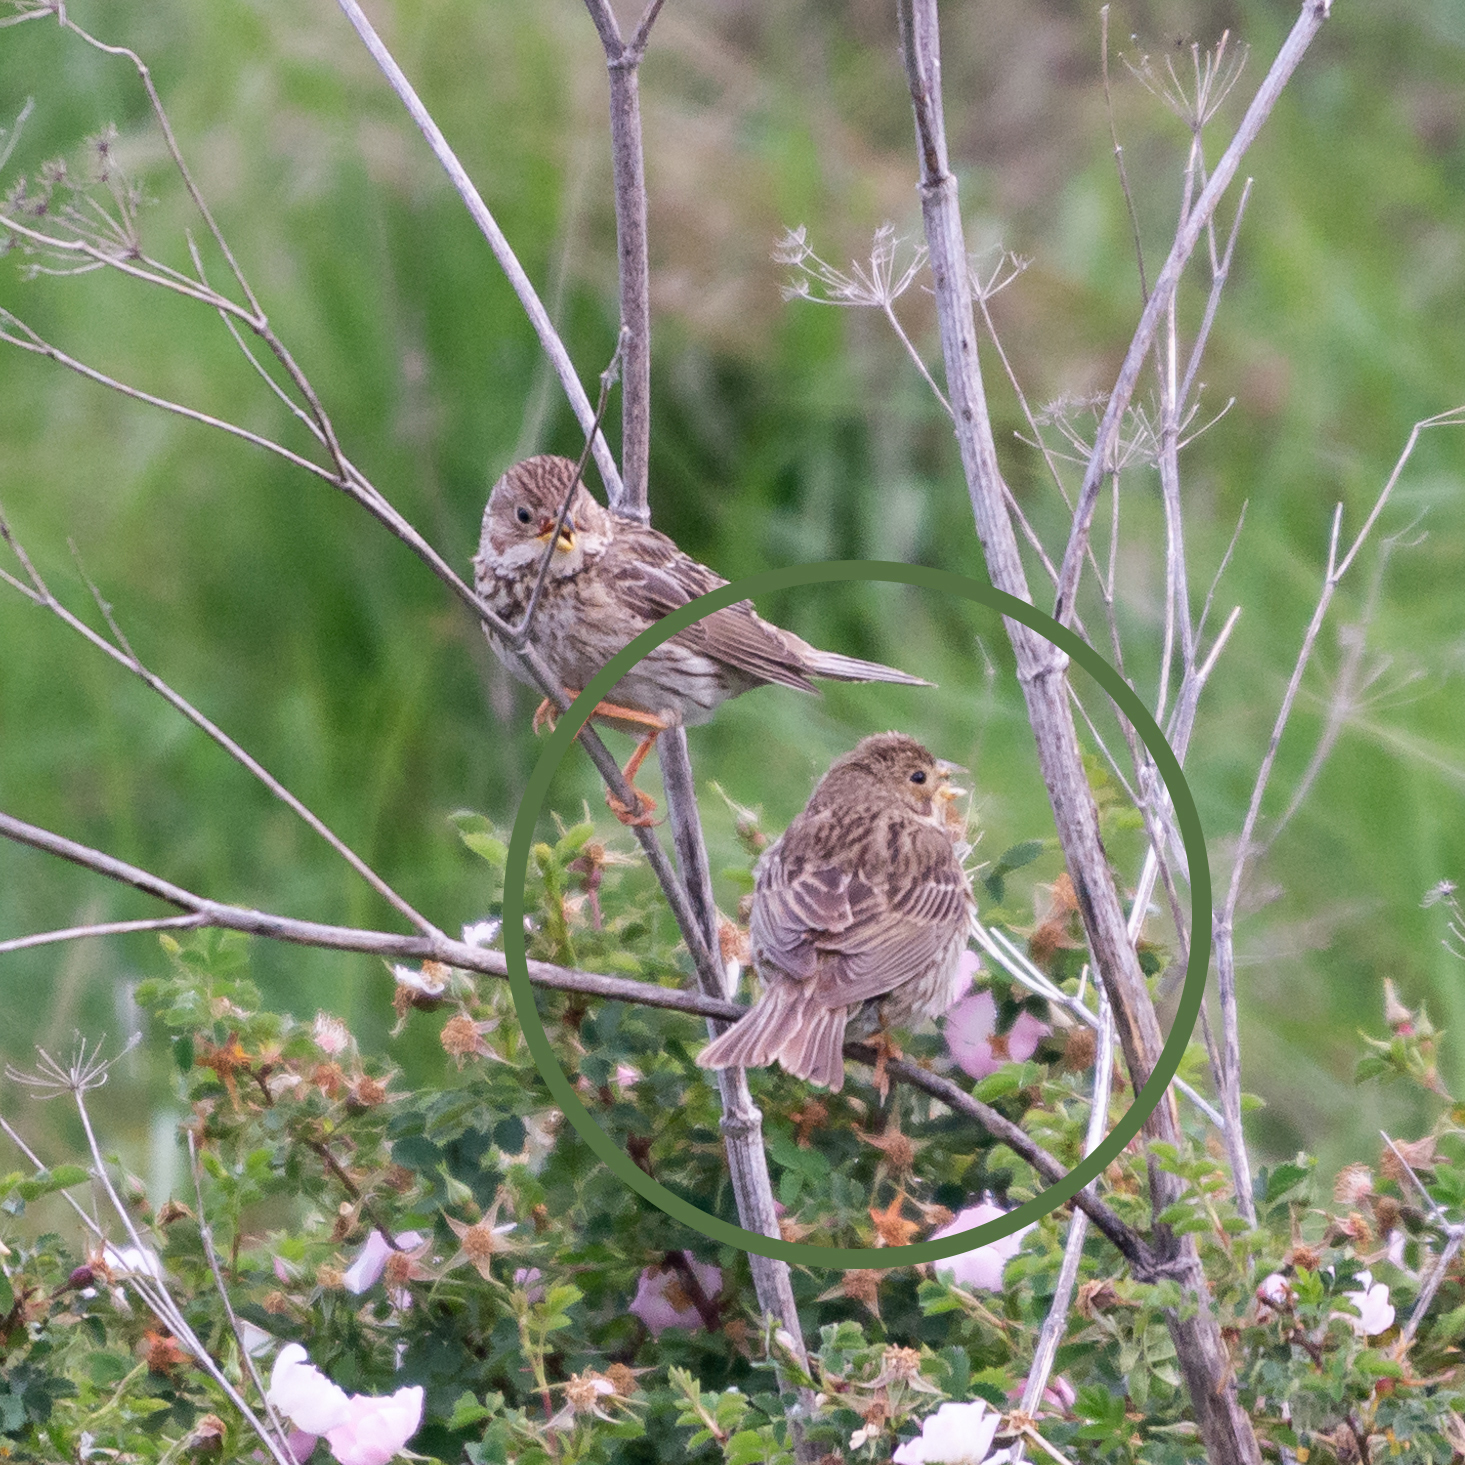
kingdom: Animalia
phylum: Chordata
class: Aves
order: Passeriformes
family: Emberizidae
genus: Emberiza
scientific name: Emberiza calandra
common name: Corn bunting
